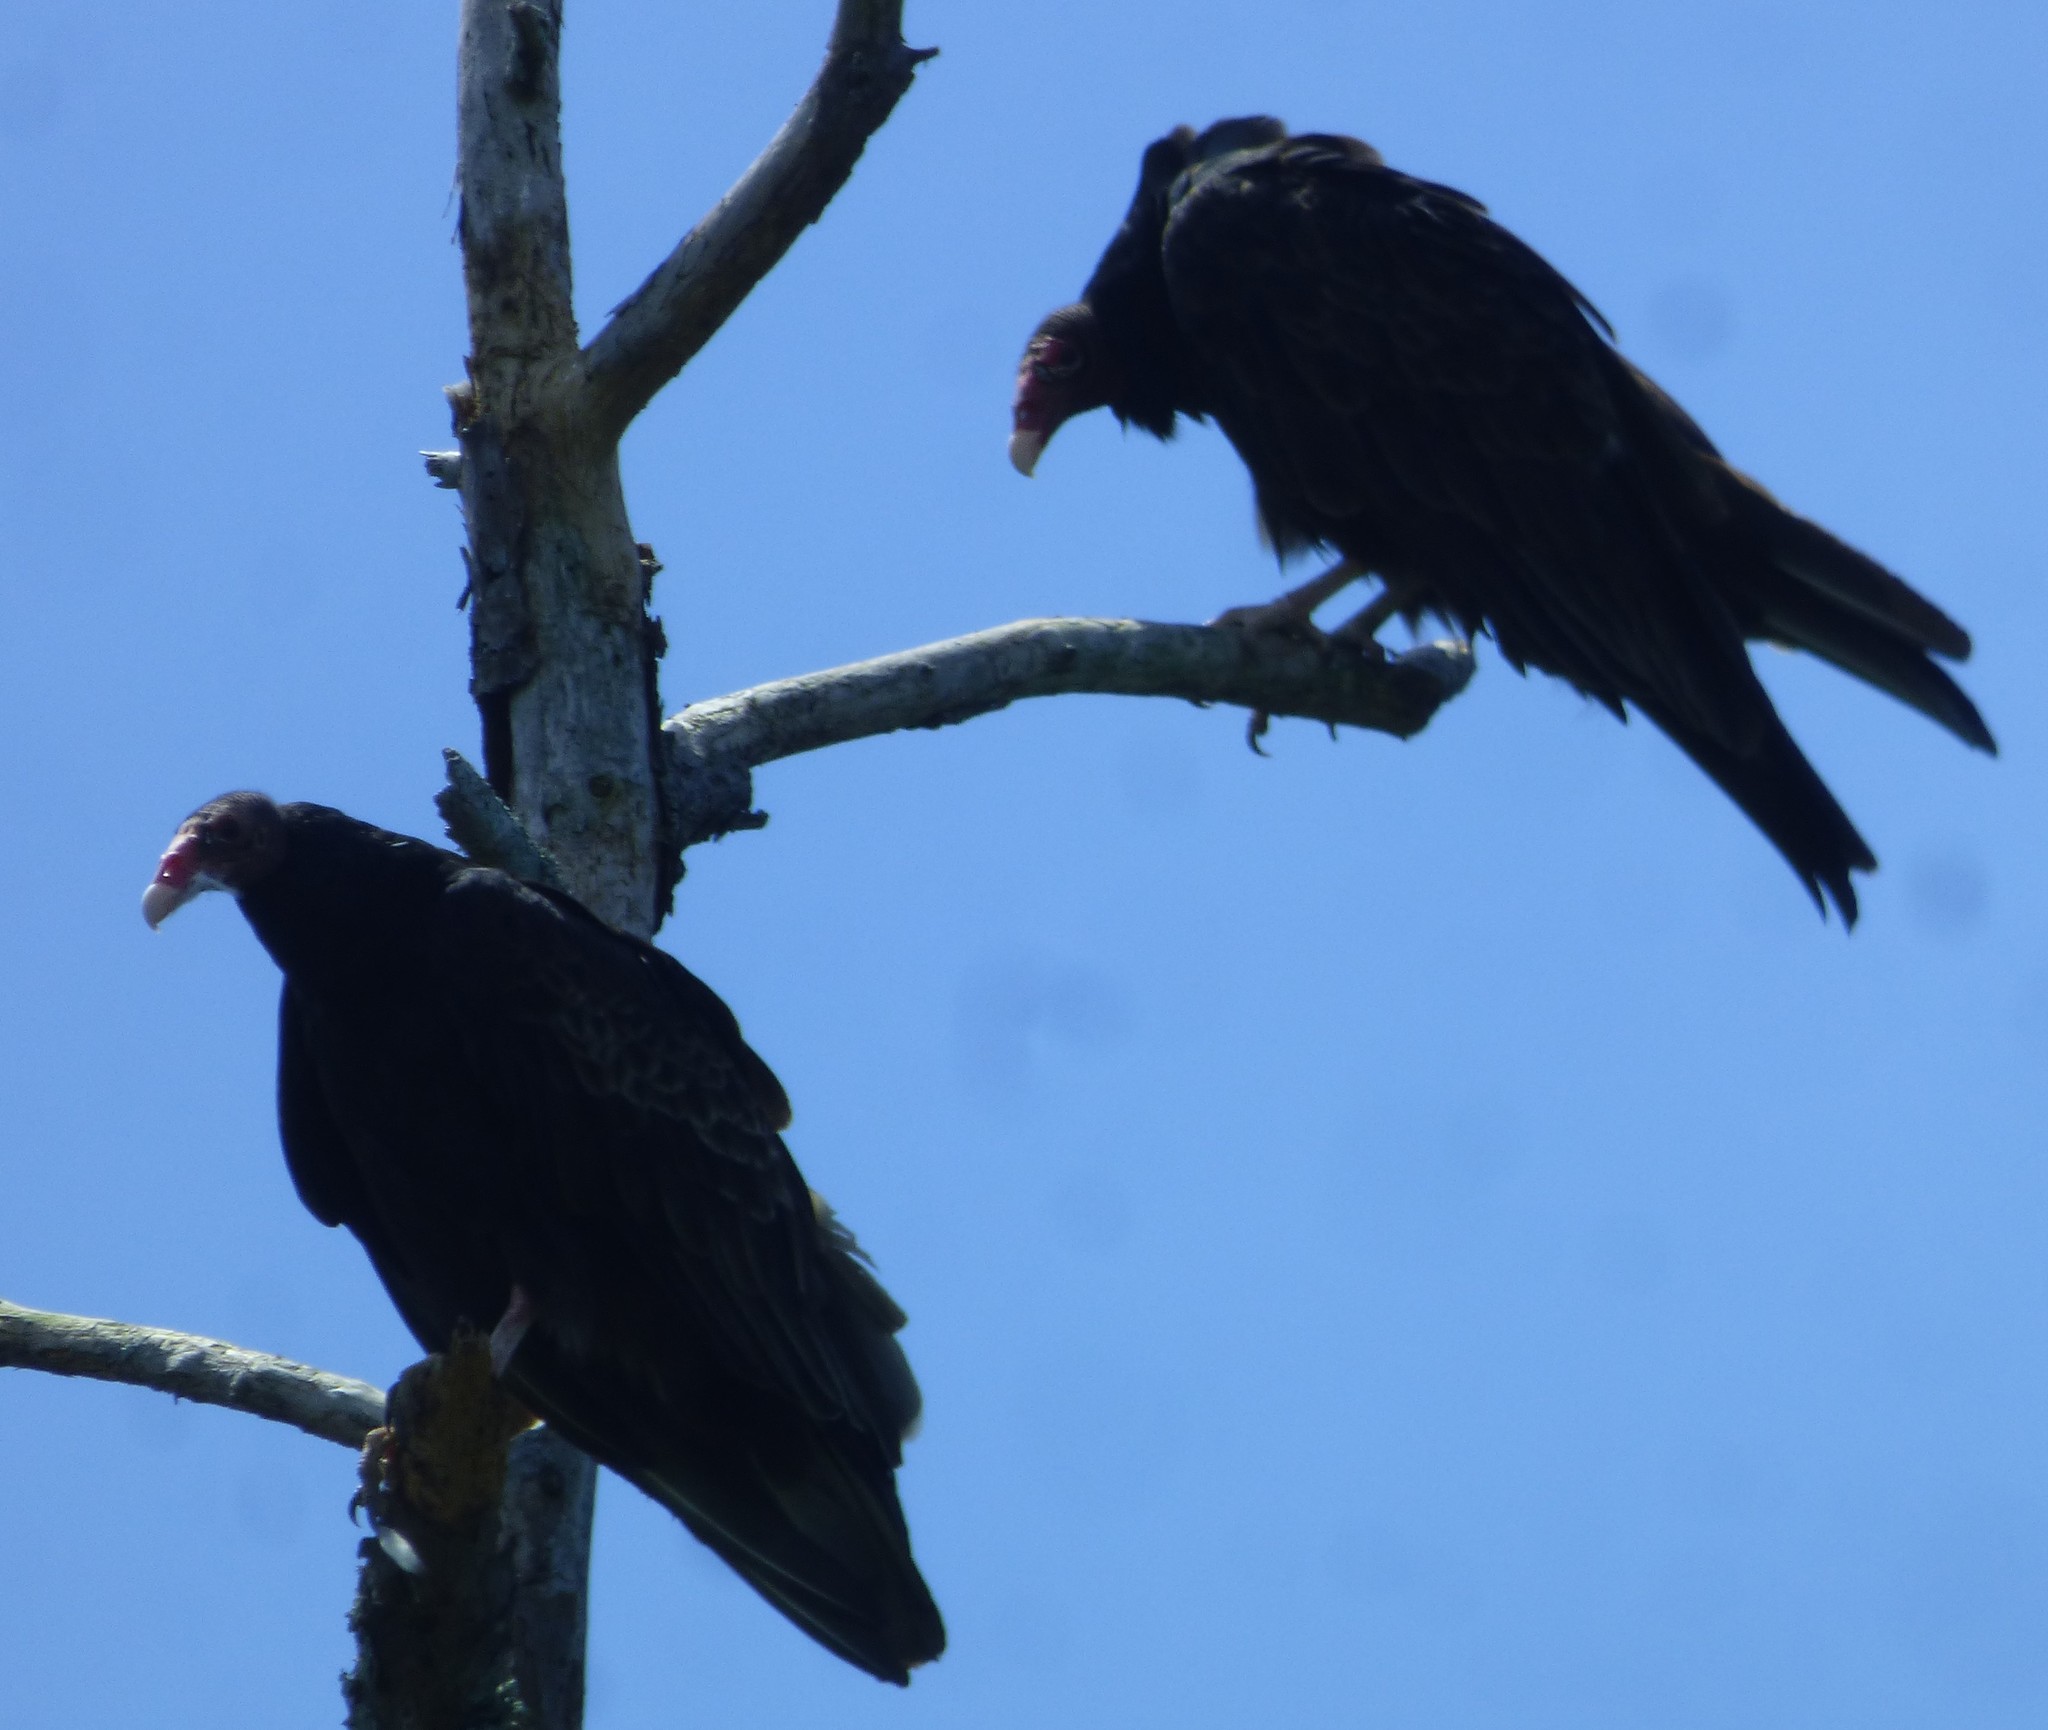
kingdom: Animalia
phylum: Chordata
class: Aves
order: Accipitriformes
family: Cathartidae
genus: Cathartes
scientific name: Cathartes aura
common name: Turkey vulture
